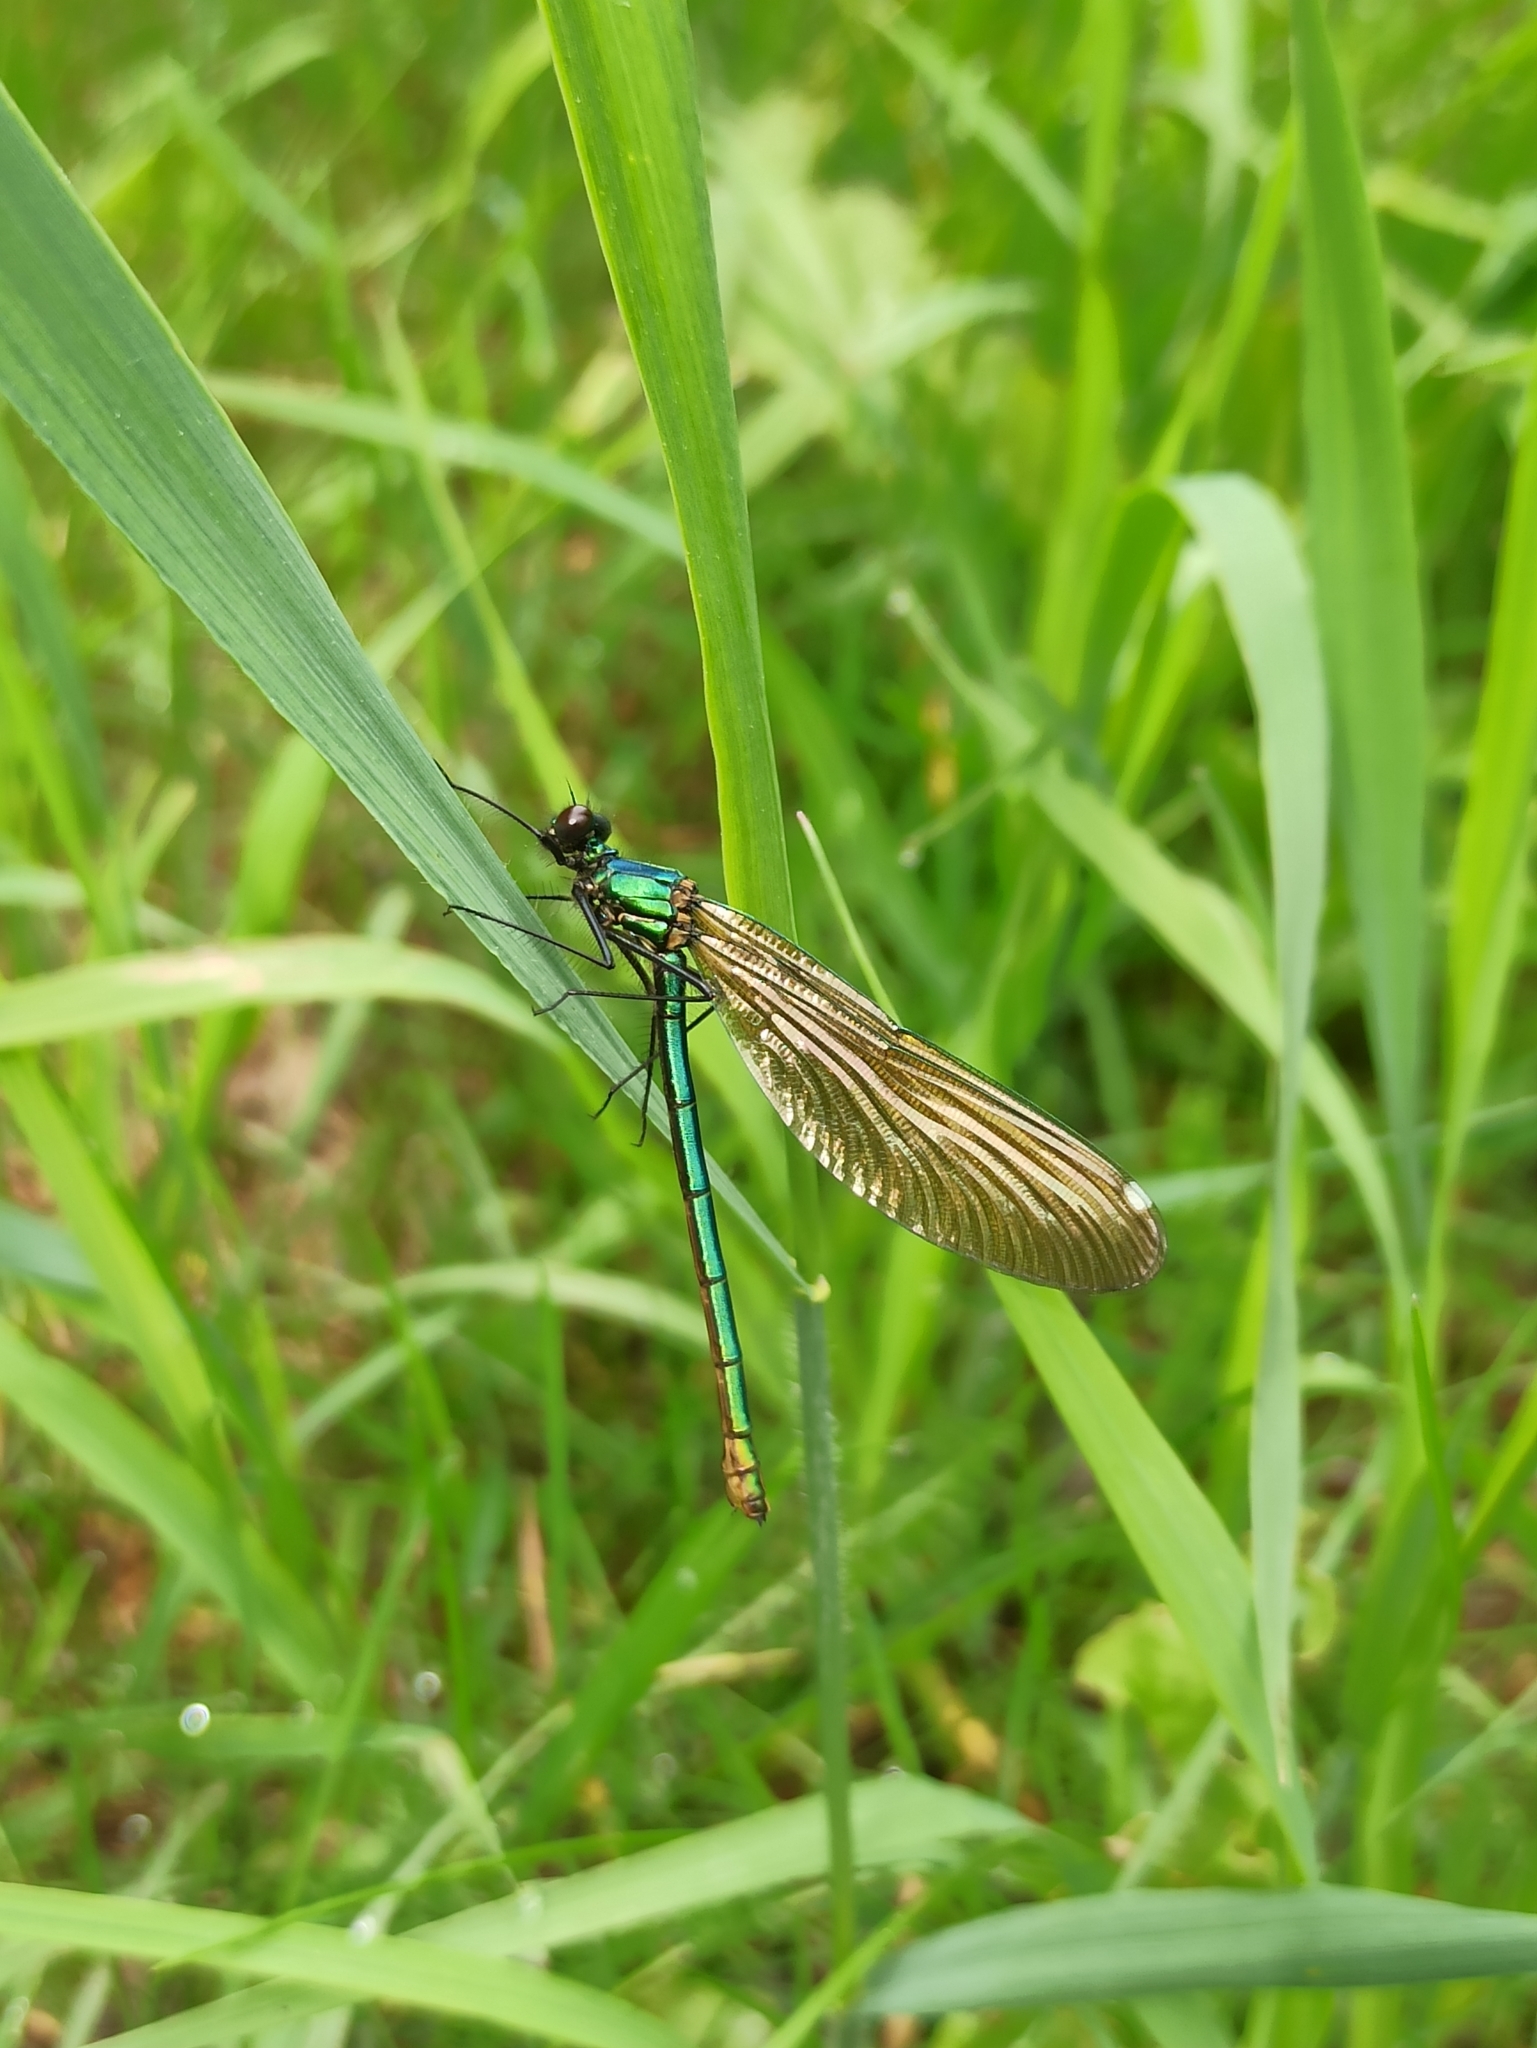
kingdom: Animalia
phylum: Arthropoda
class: Insecta
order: Odonata
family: Calopterygidae
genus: Calopteryx
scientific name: Calopteryx splendens
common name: Banded demoiselle
